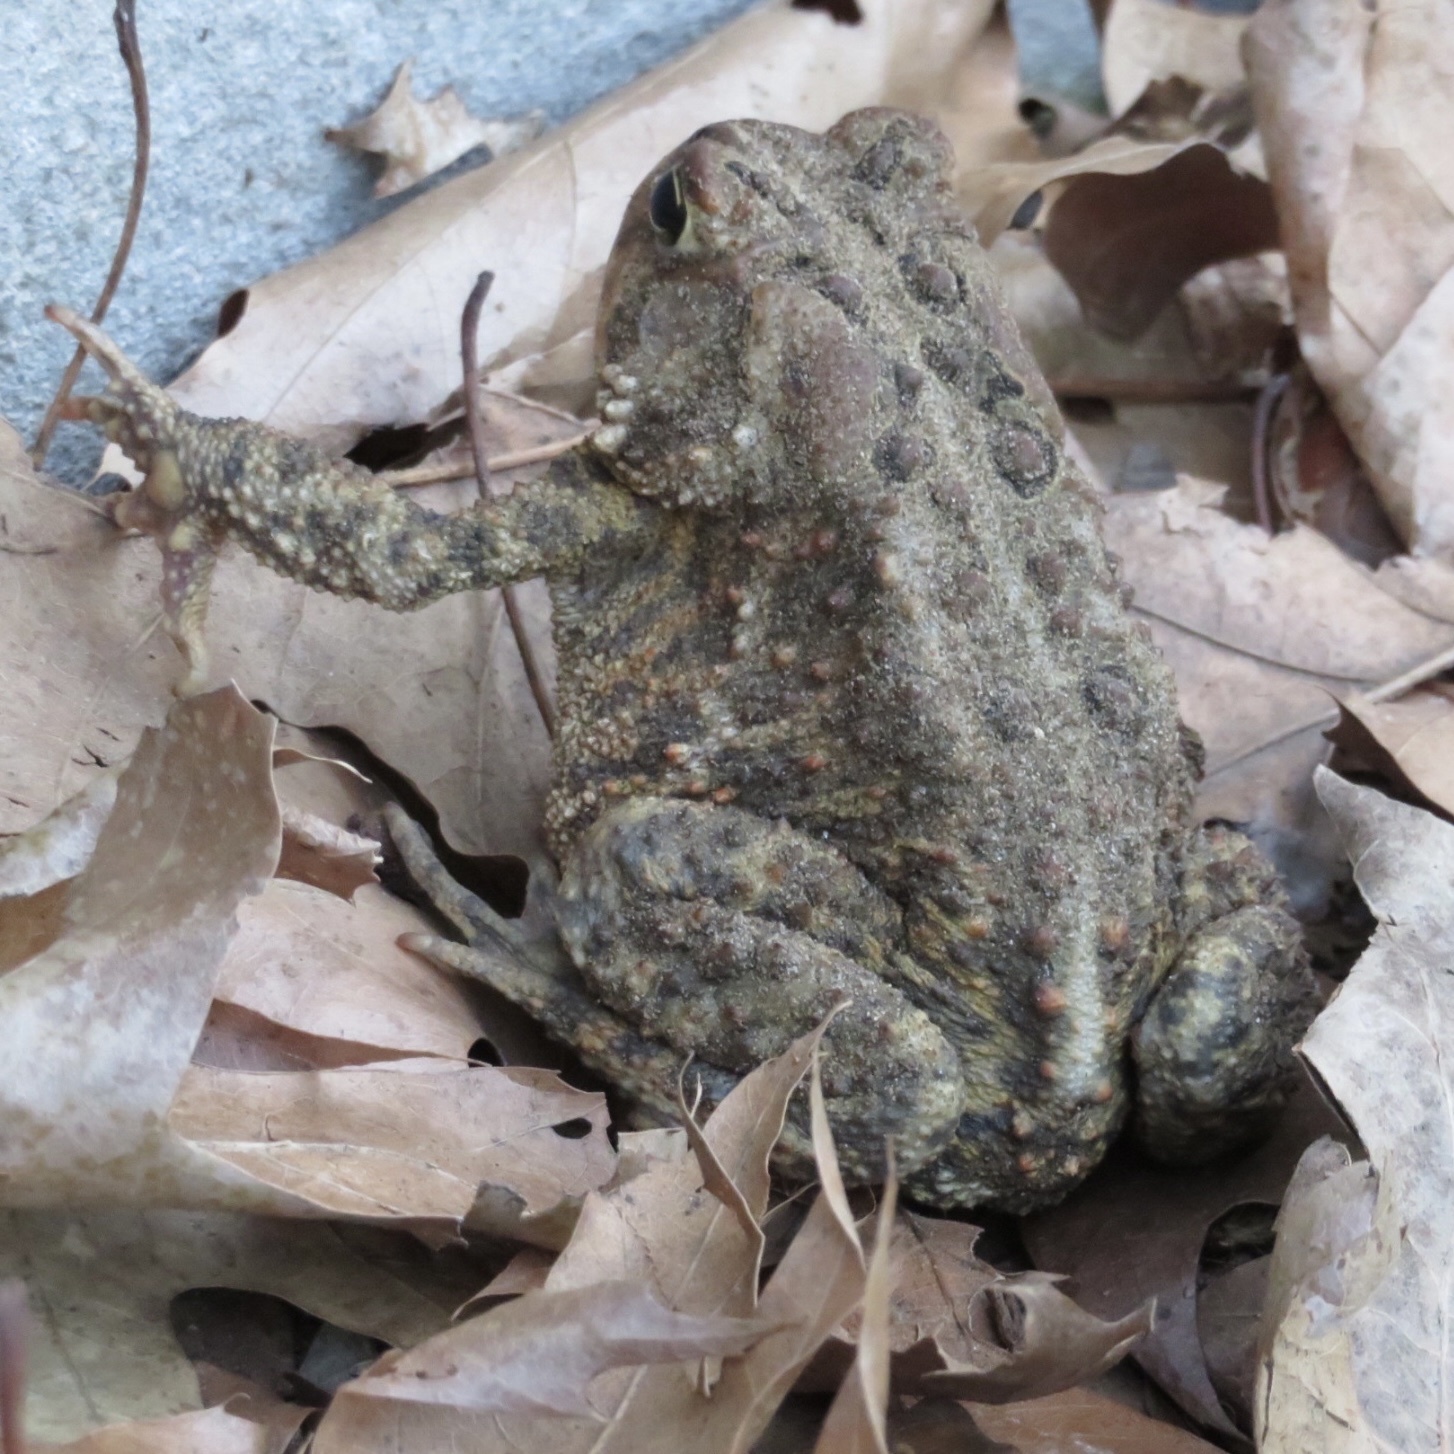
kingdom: Animalia
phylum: Chordata
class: Amphibia
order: Anura
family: Bufonidae
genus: Anaxyrus
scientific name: Anaxyrus americanus
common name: American toad
